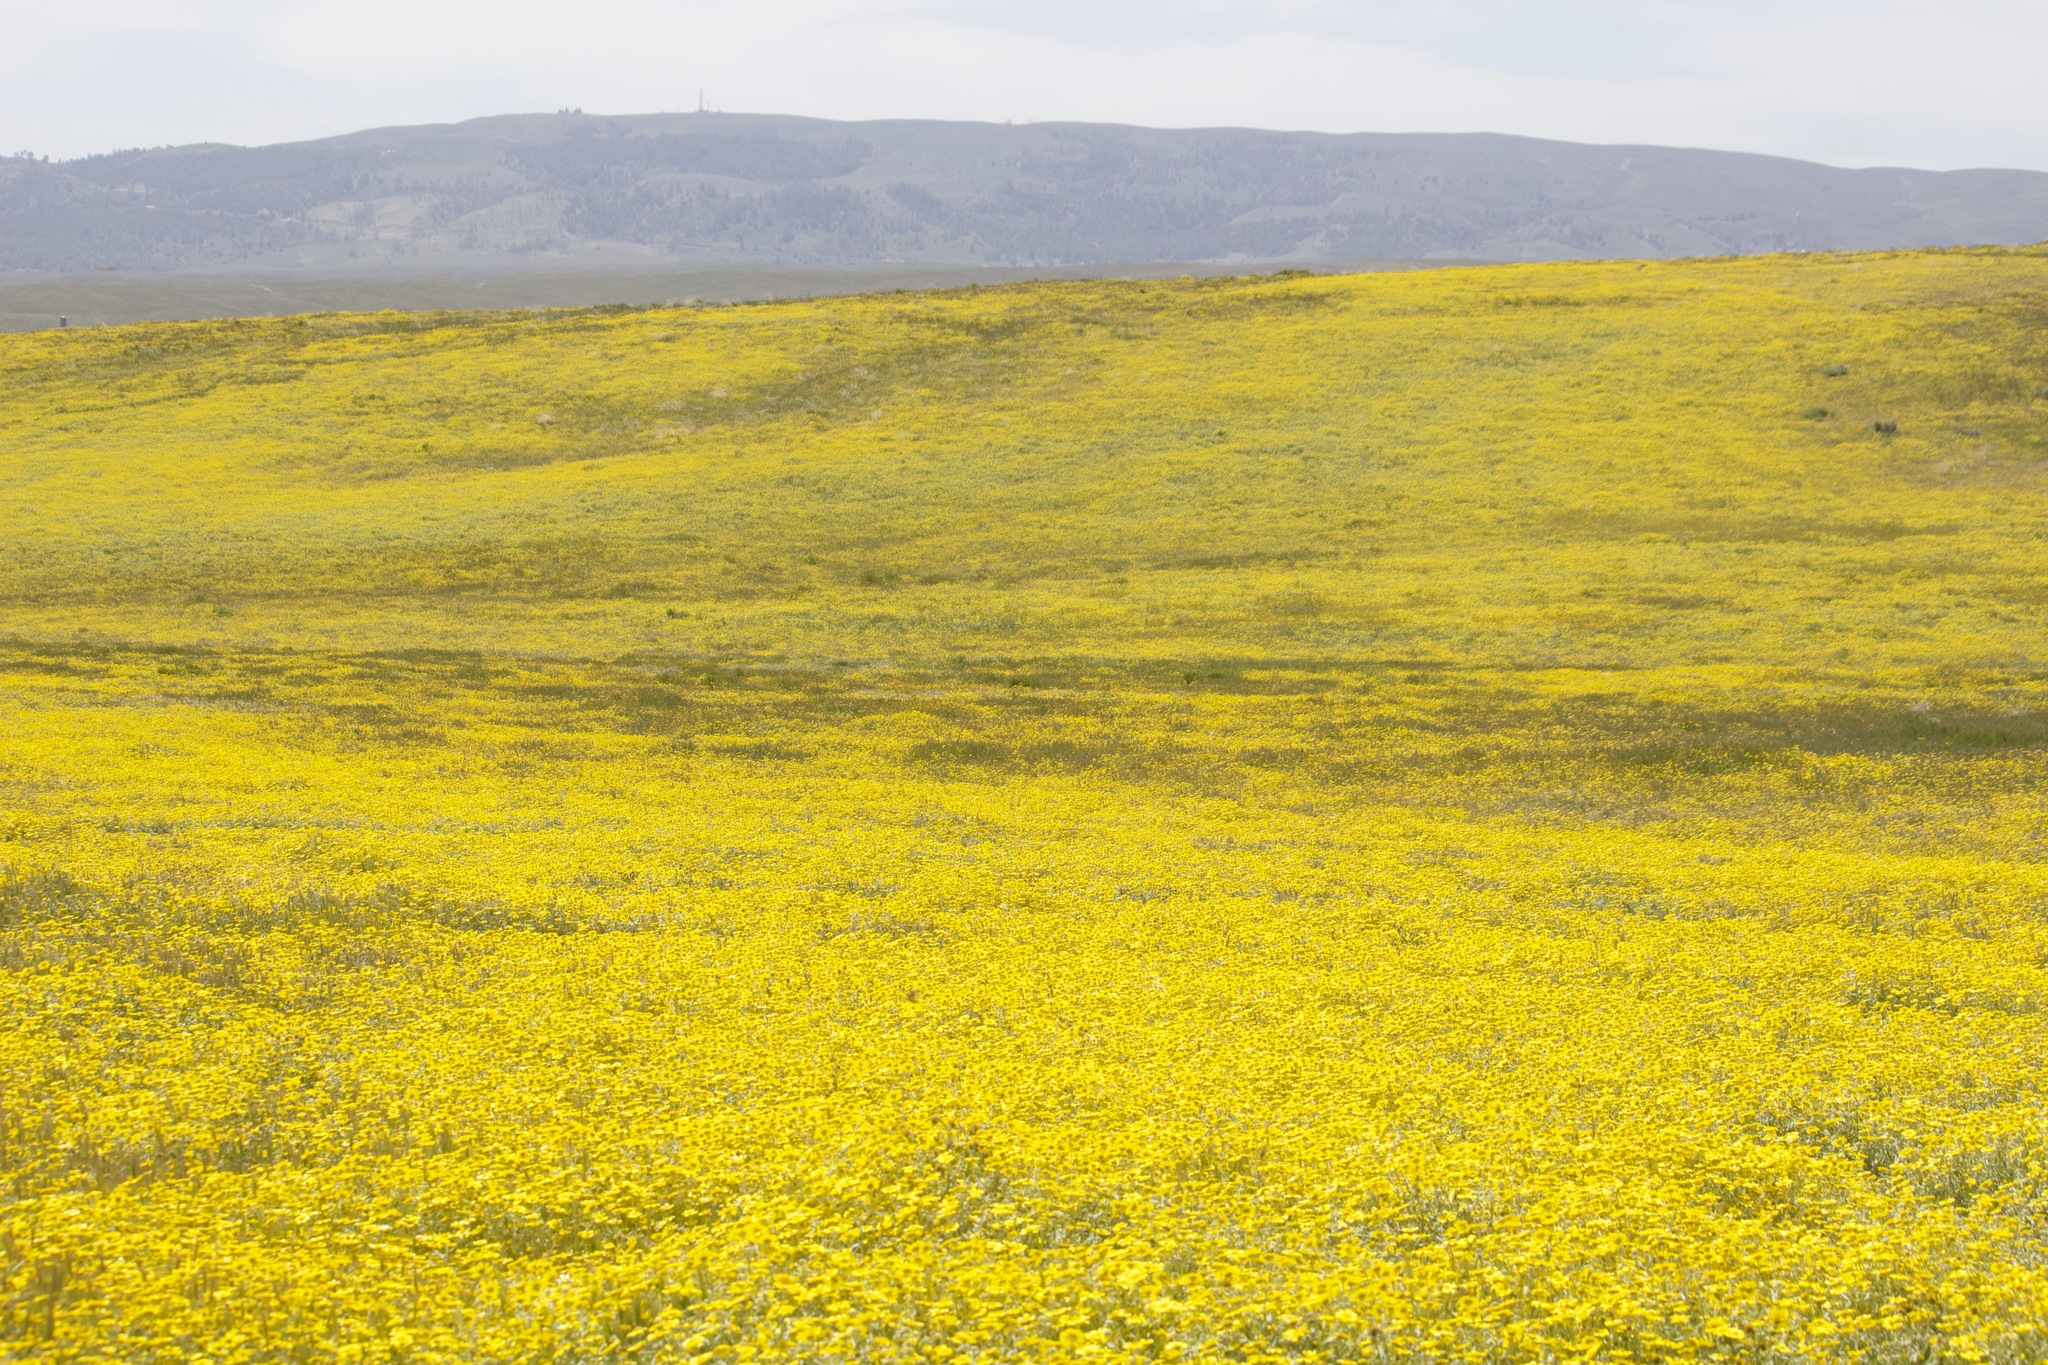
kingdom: Plantae
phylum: Tracheophyta
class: Magnoliopsida
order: Asterales
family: Asteraceae
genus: Monolopia
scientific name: Monolopia lanceolata
